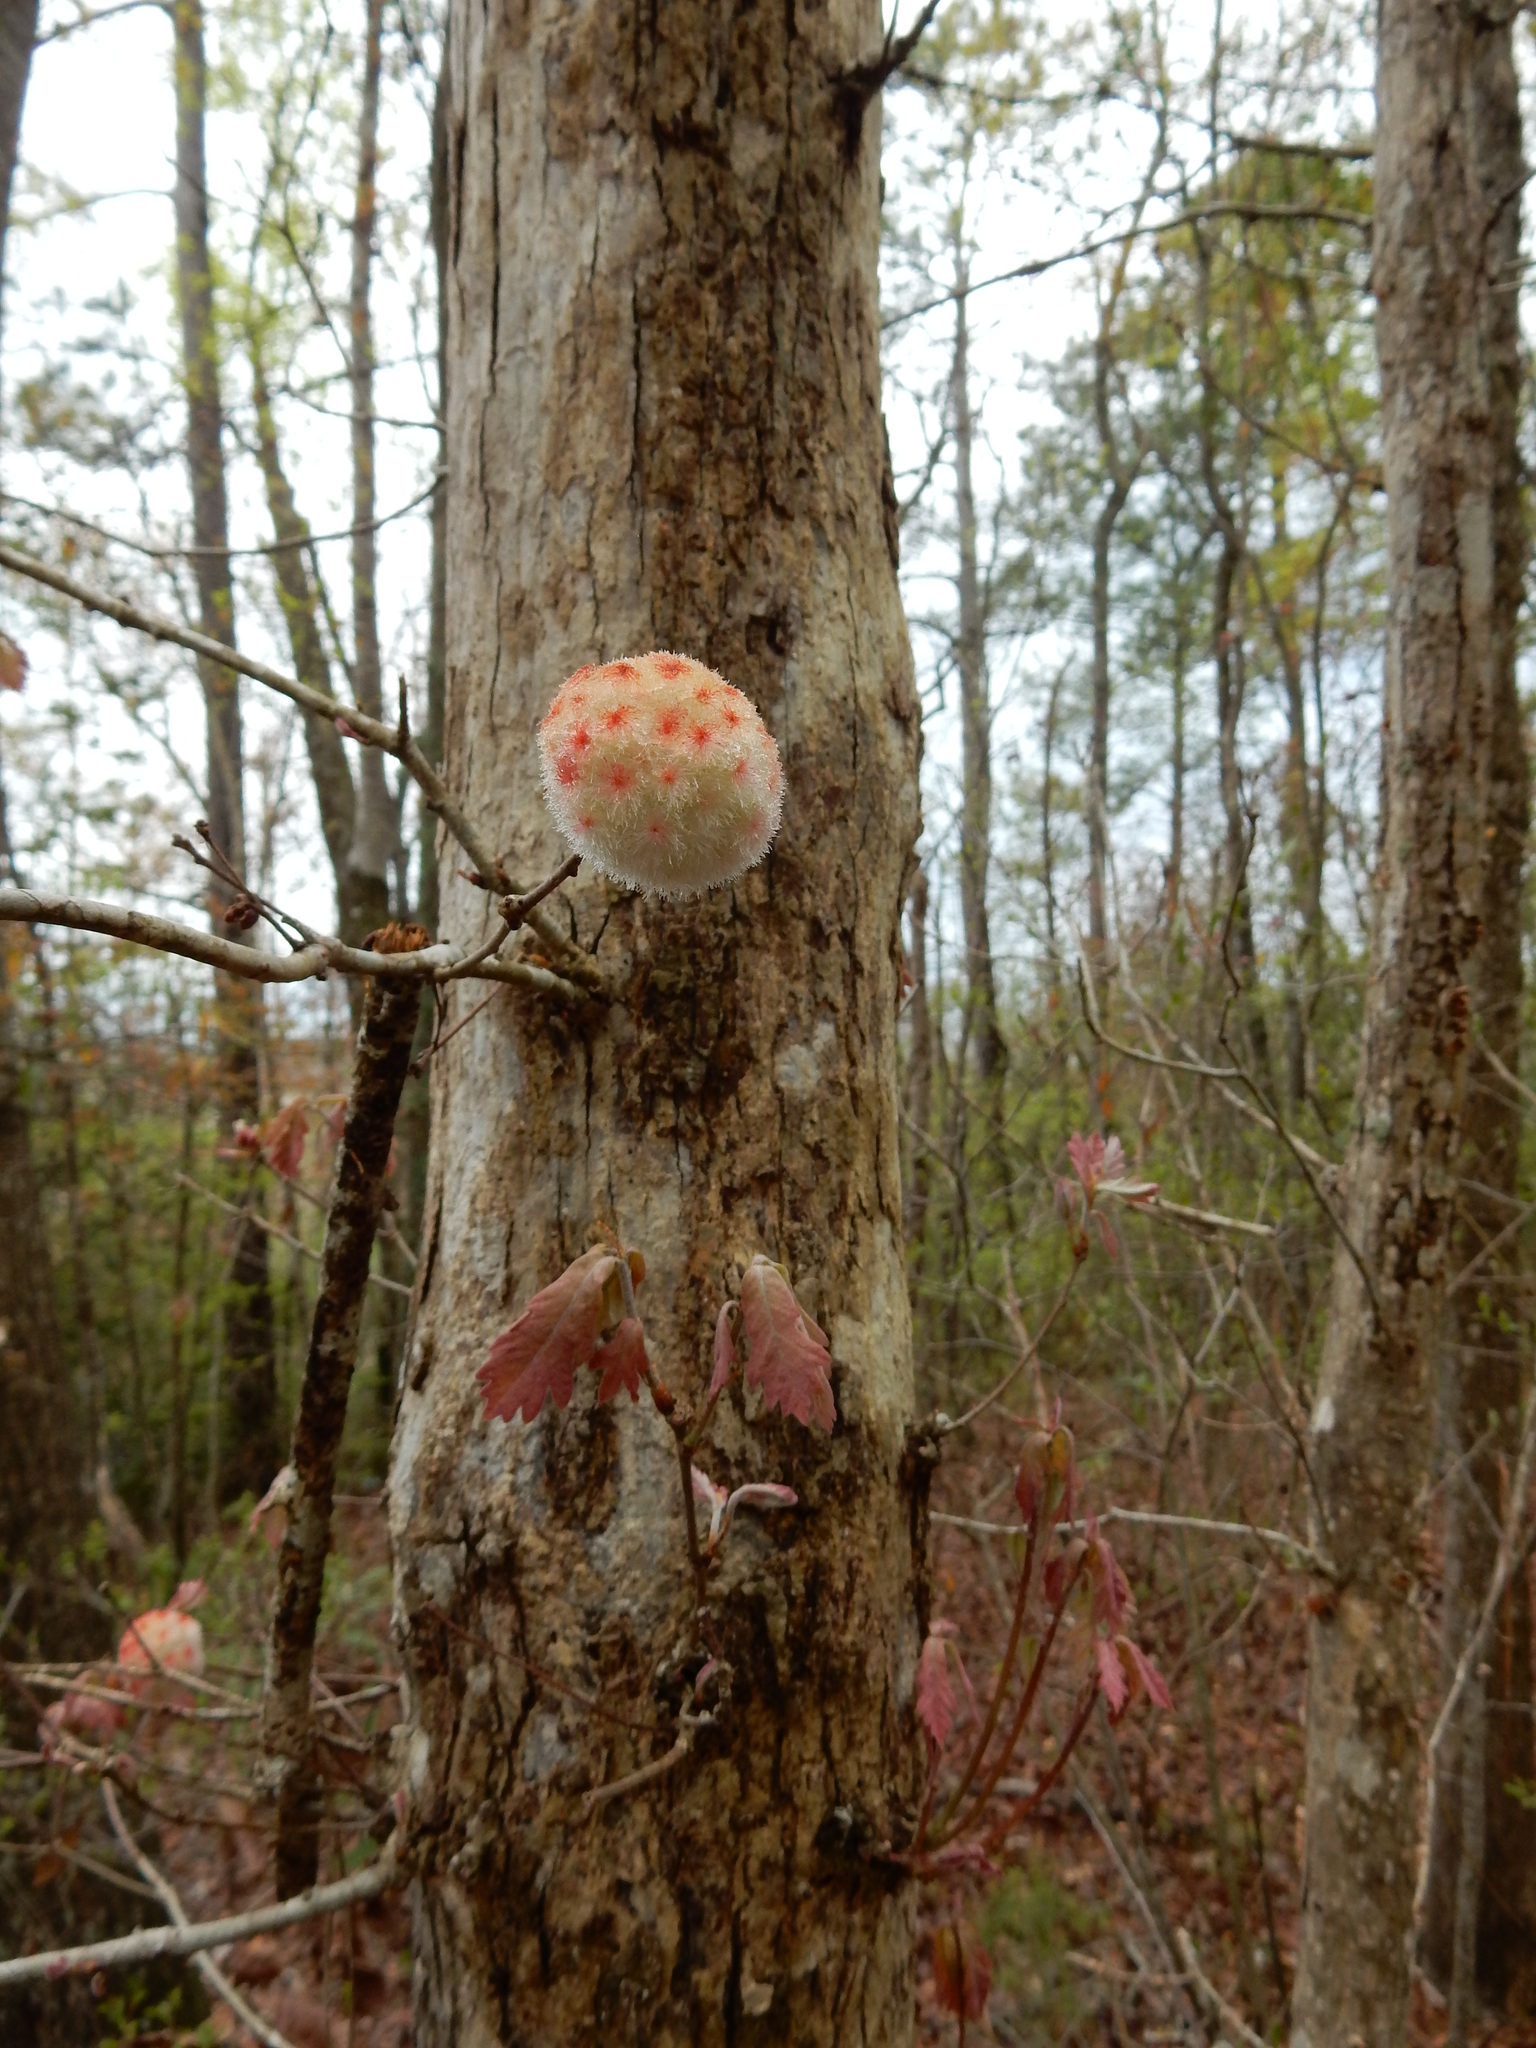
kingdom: Animalia
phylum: Arthropoda
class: Insecta
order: Hymenoptera
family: Cynipidae
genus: Callirhytis
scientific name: Callirhytis
